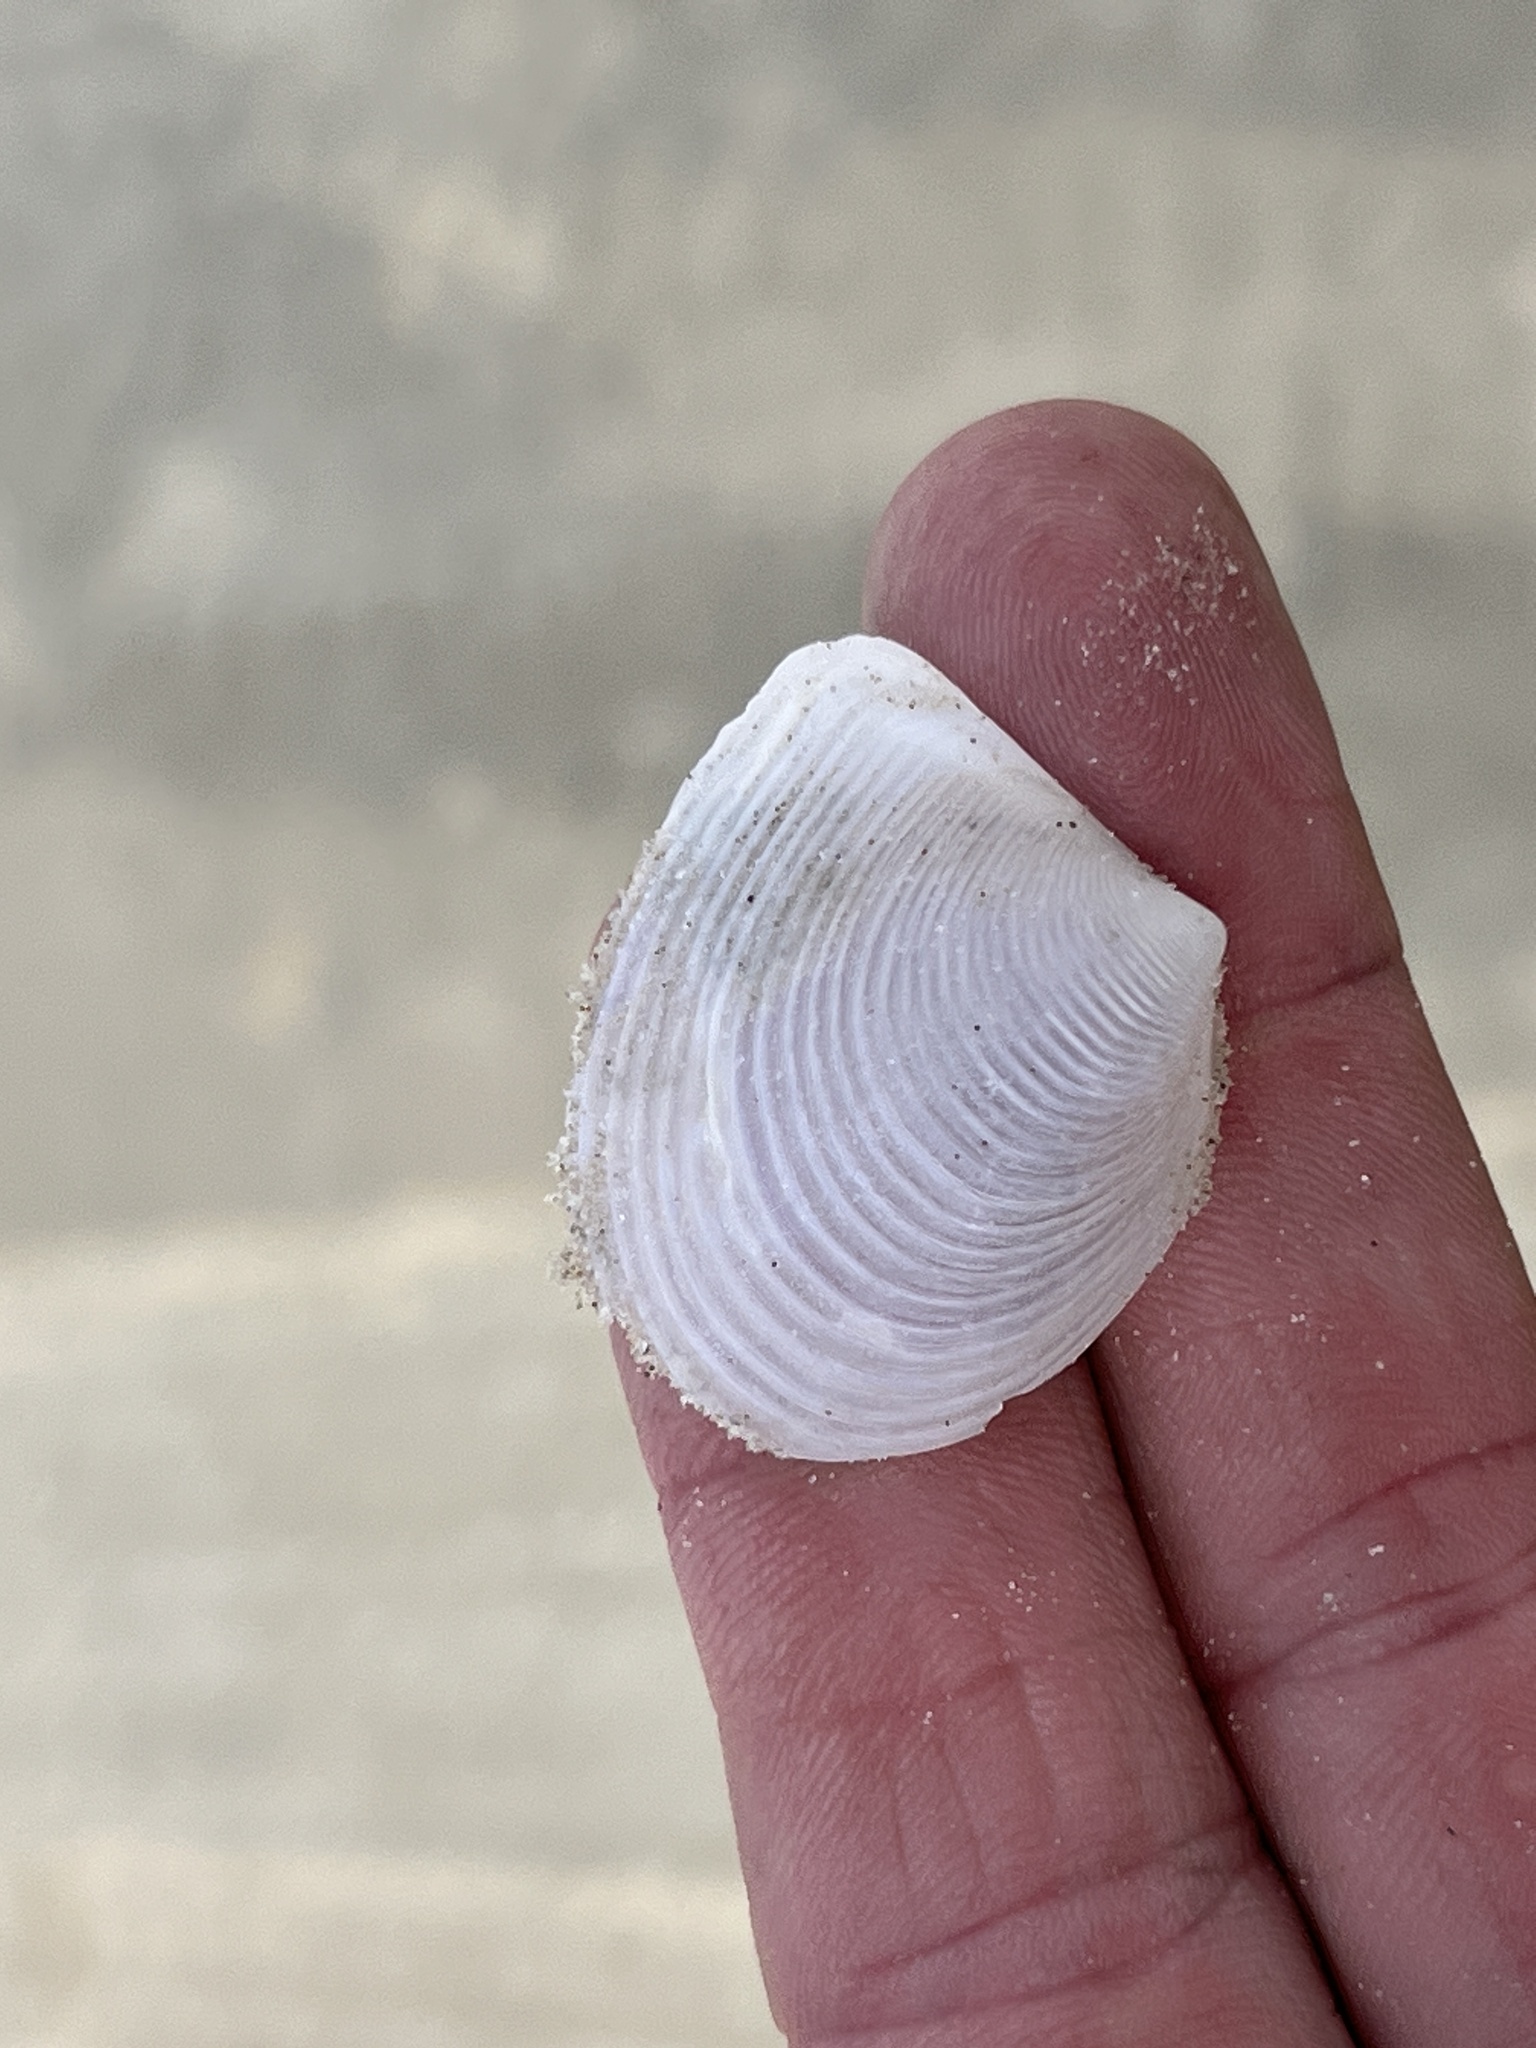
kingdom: Animalia
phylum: Mollusca
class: Bivalvia
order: Venerida
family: Anatinellidae
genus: Raeta
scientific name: Raeta plicatella
